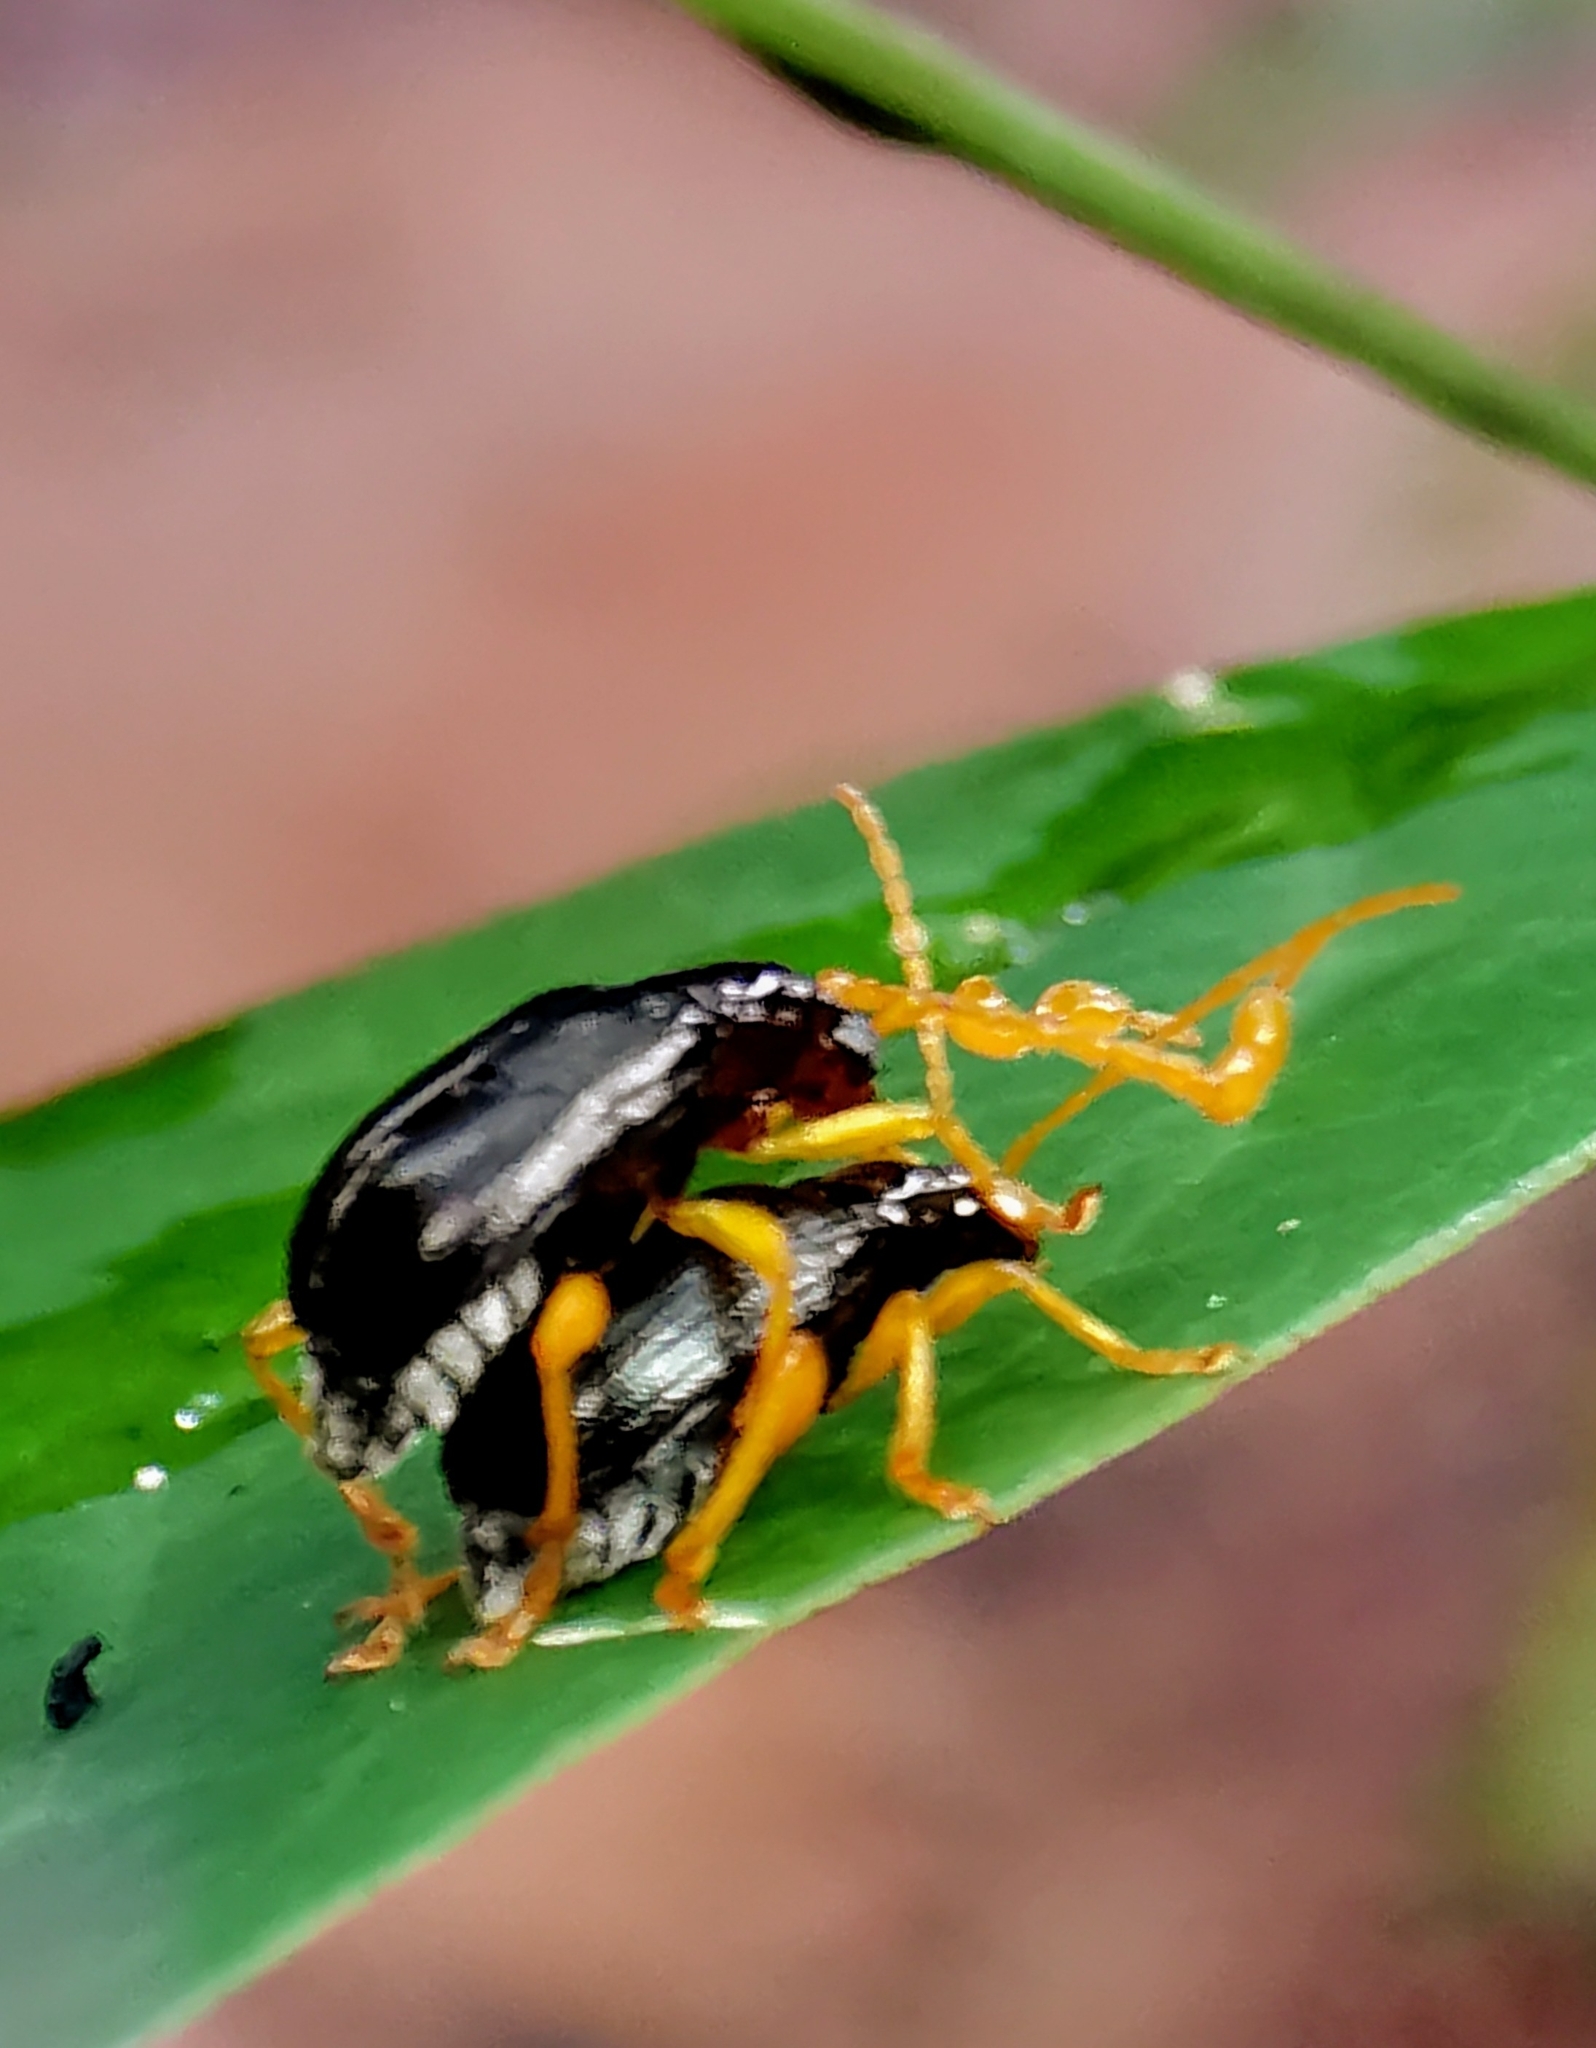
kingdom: Animalia
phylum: Arthropoda
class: Insecta
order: Coleoptera
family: Chrysomelidae
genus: Taumacera
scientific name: Taumacera insignis
